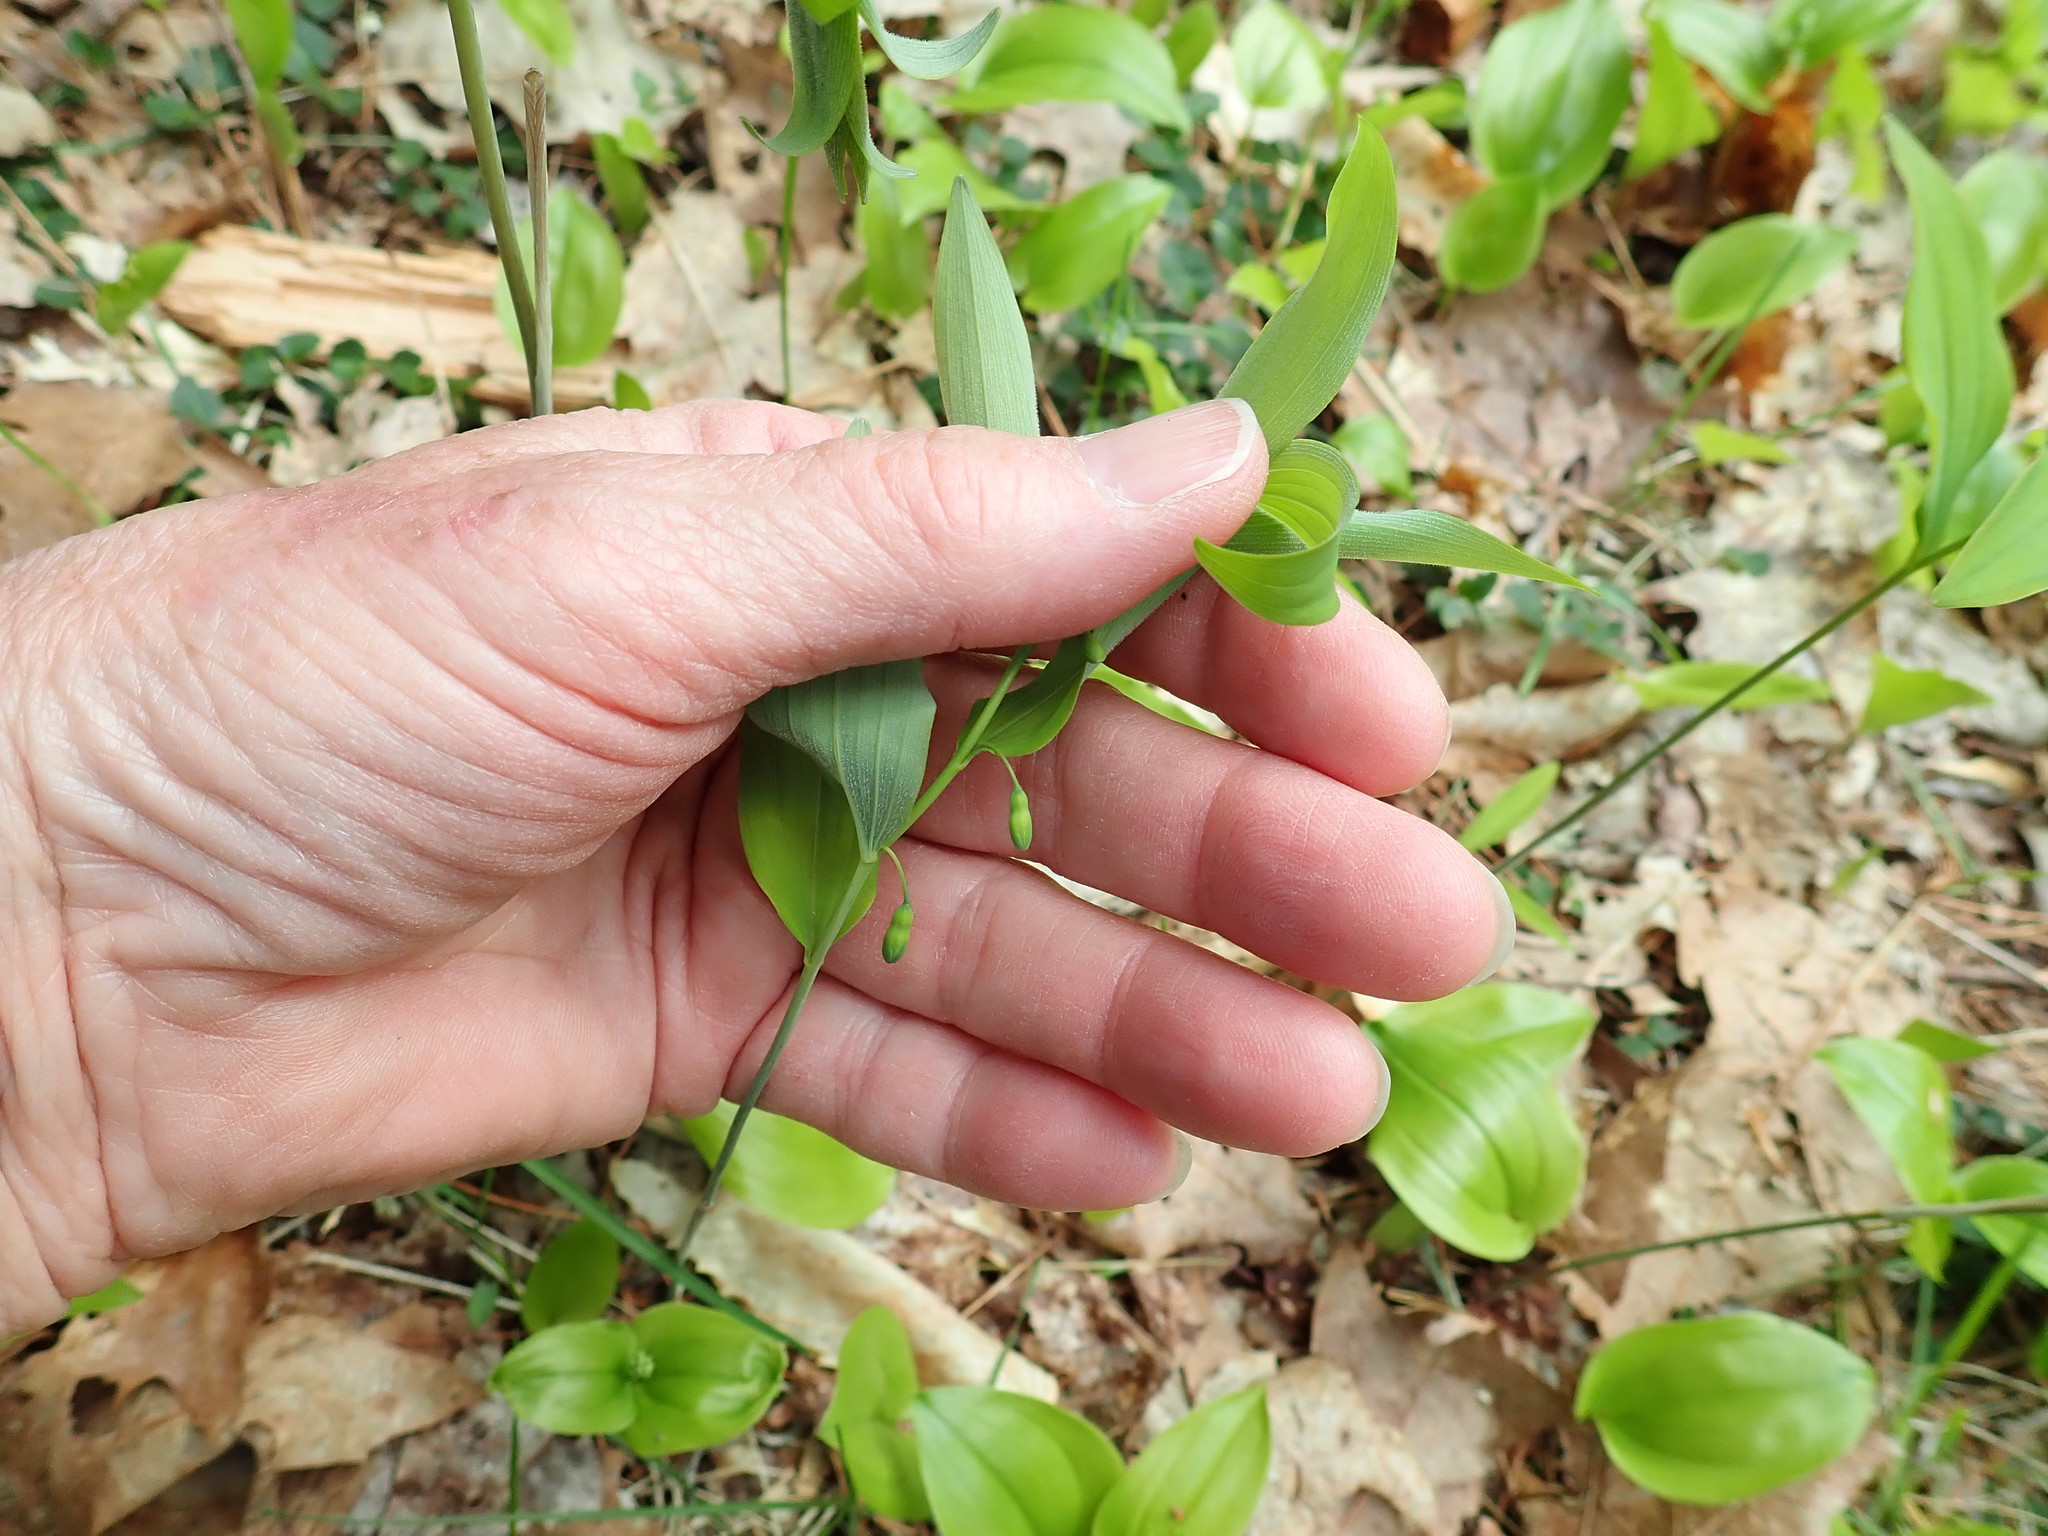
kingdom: Plantae
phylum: Tracheophyta
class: Liliopsida
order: Asparagales
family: Asparagaceae
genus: Polygonatum
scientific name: Polygonatum pubescens
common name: Downy solomon's seal
